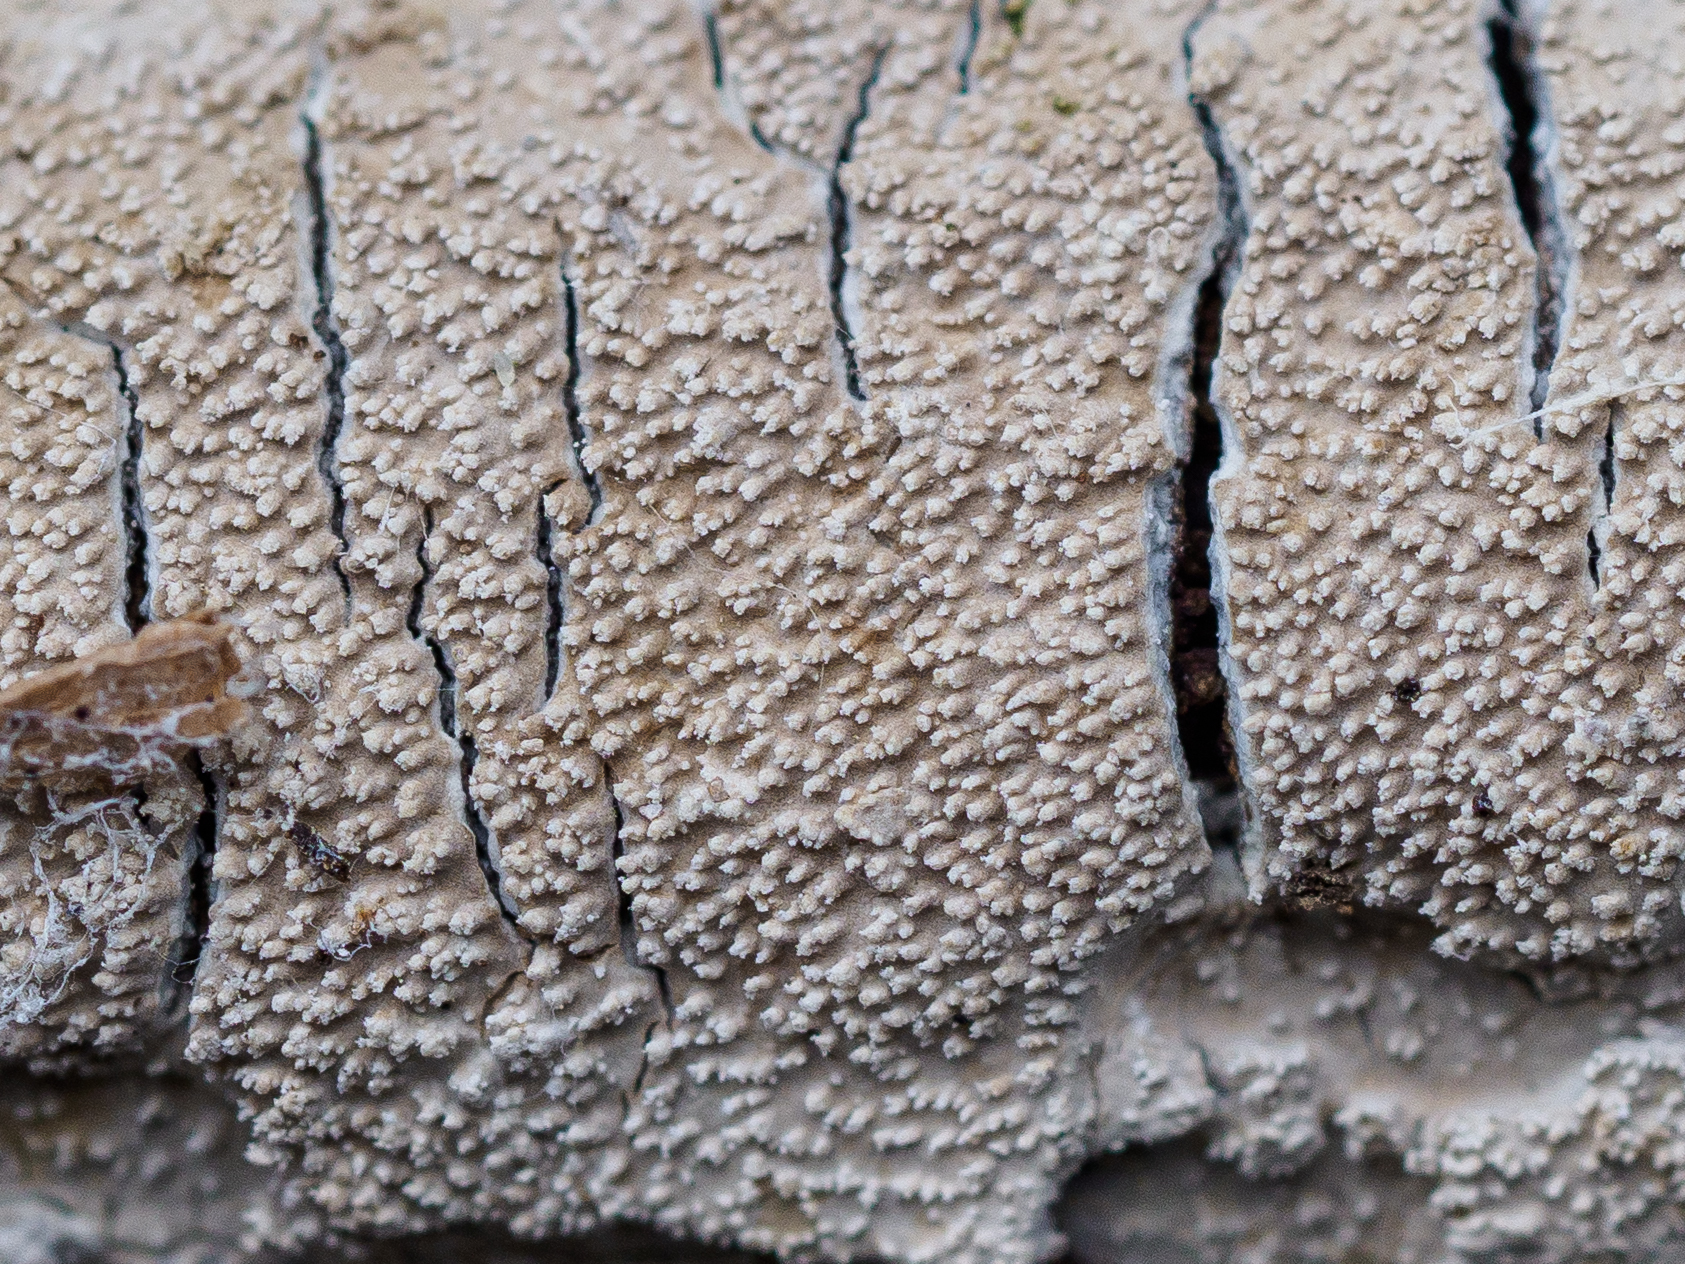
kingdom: Fungi
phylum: Basidiomycota
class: Agaricomycetes
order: Agaricales
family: Cystostereaceae
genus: Crustomyces
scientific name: Crustomyces subabruptus
